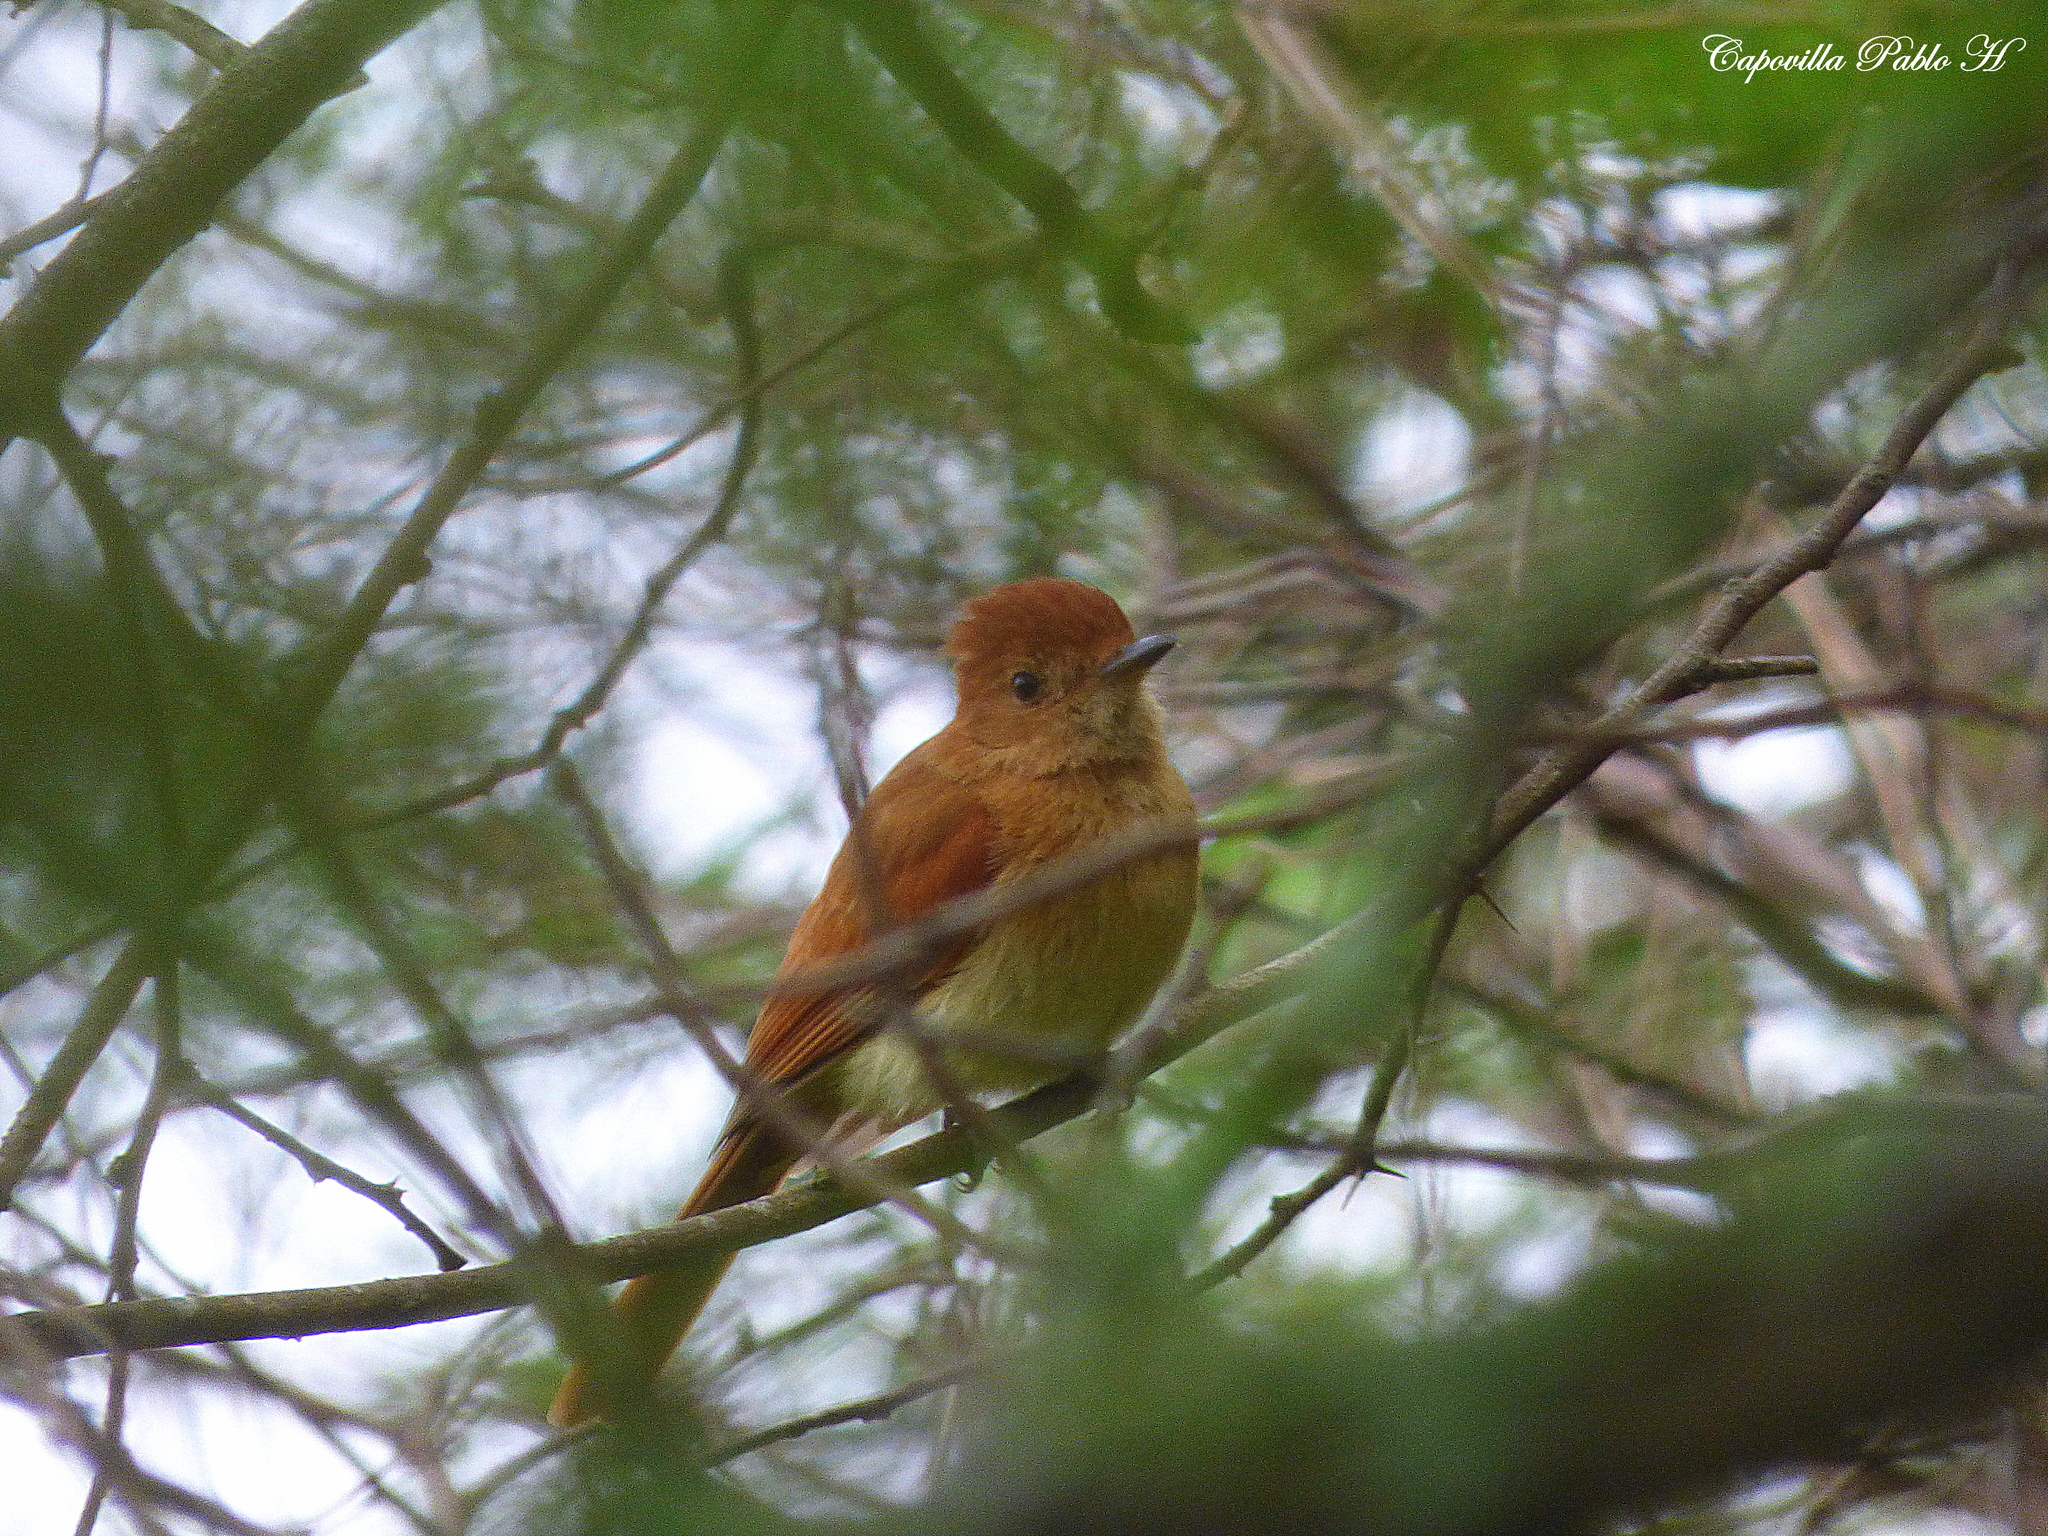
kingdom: Animalia
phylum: Chordata
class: Aves
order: Passeriformes
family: Tyrannidae
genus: Casiornis
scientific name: Casiornis rufus
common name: Rufous casiornis
